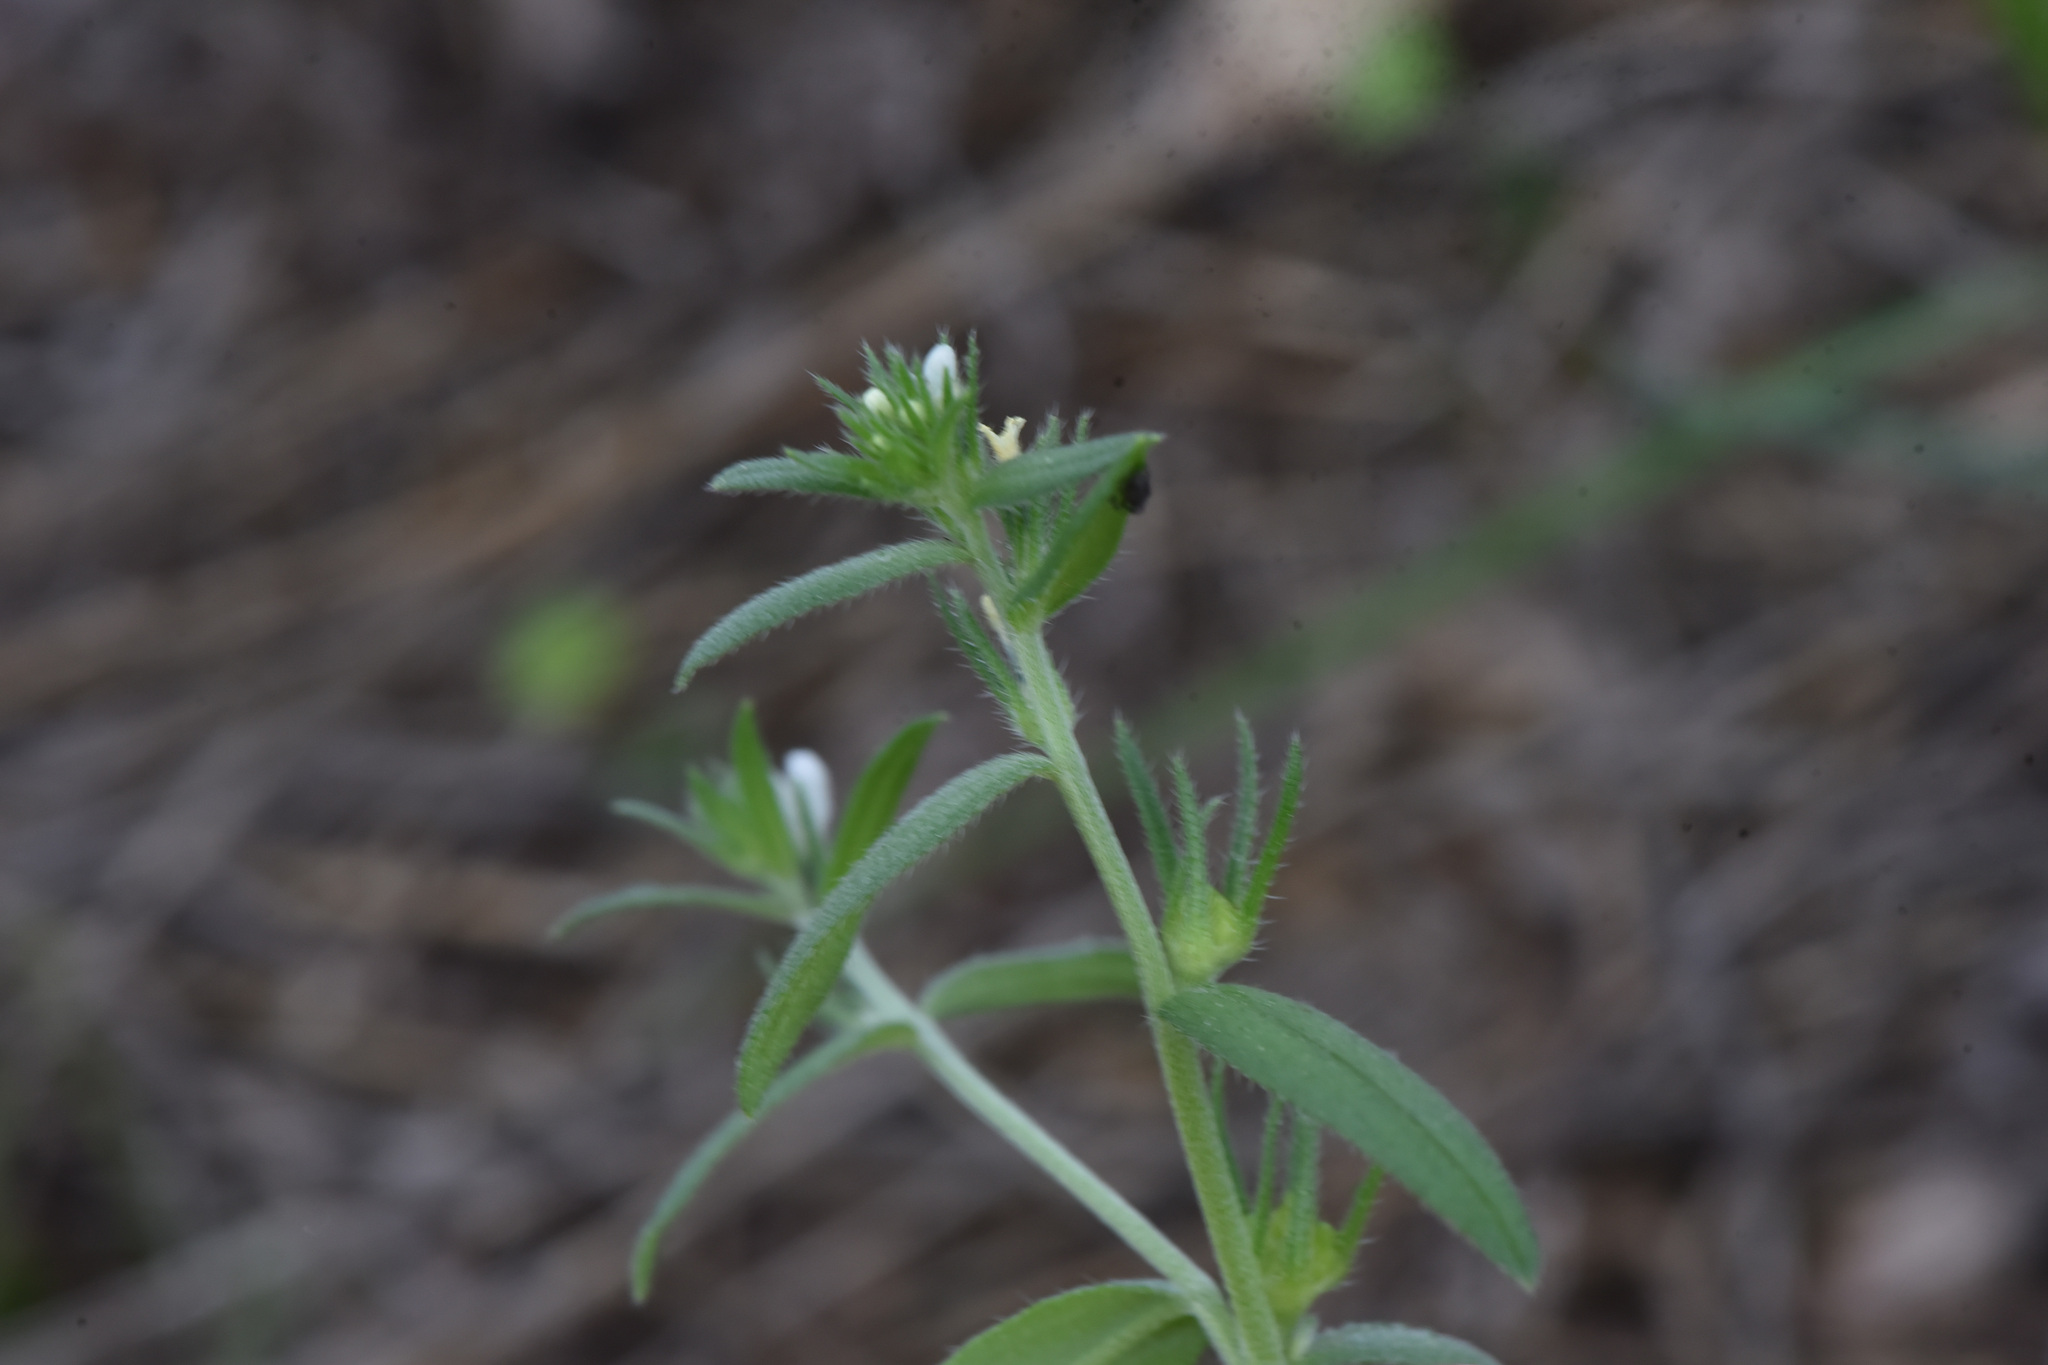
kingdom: Plantae
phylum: Tracheophyta
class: Magnoliopsida
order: Boraginales
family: Boraginaceae
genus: Buglossoides
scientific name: Buglossoides arvensis
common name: Corn gromwell
